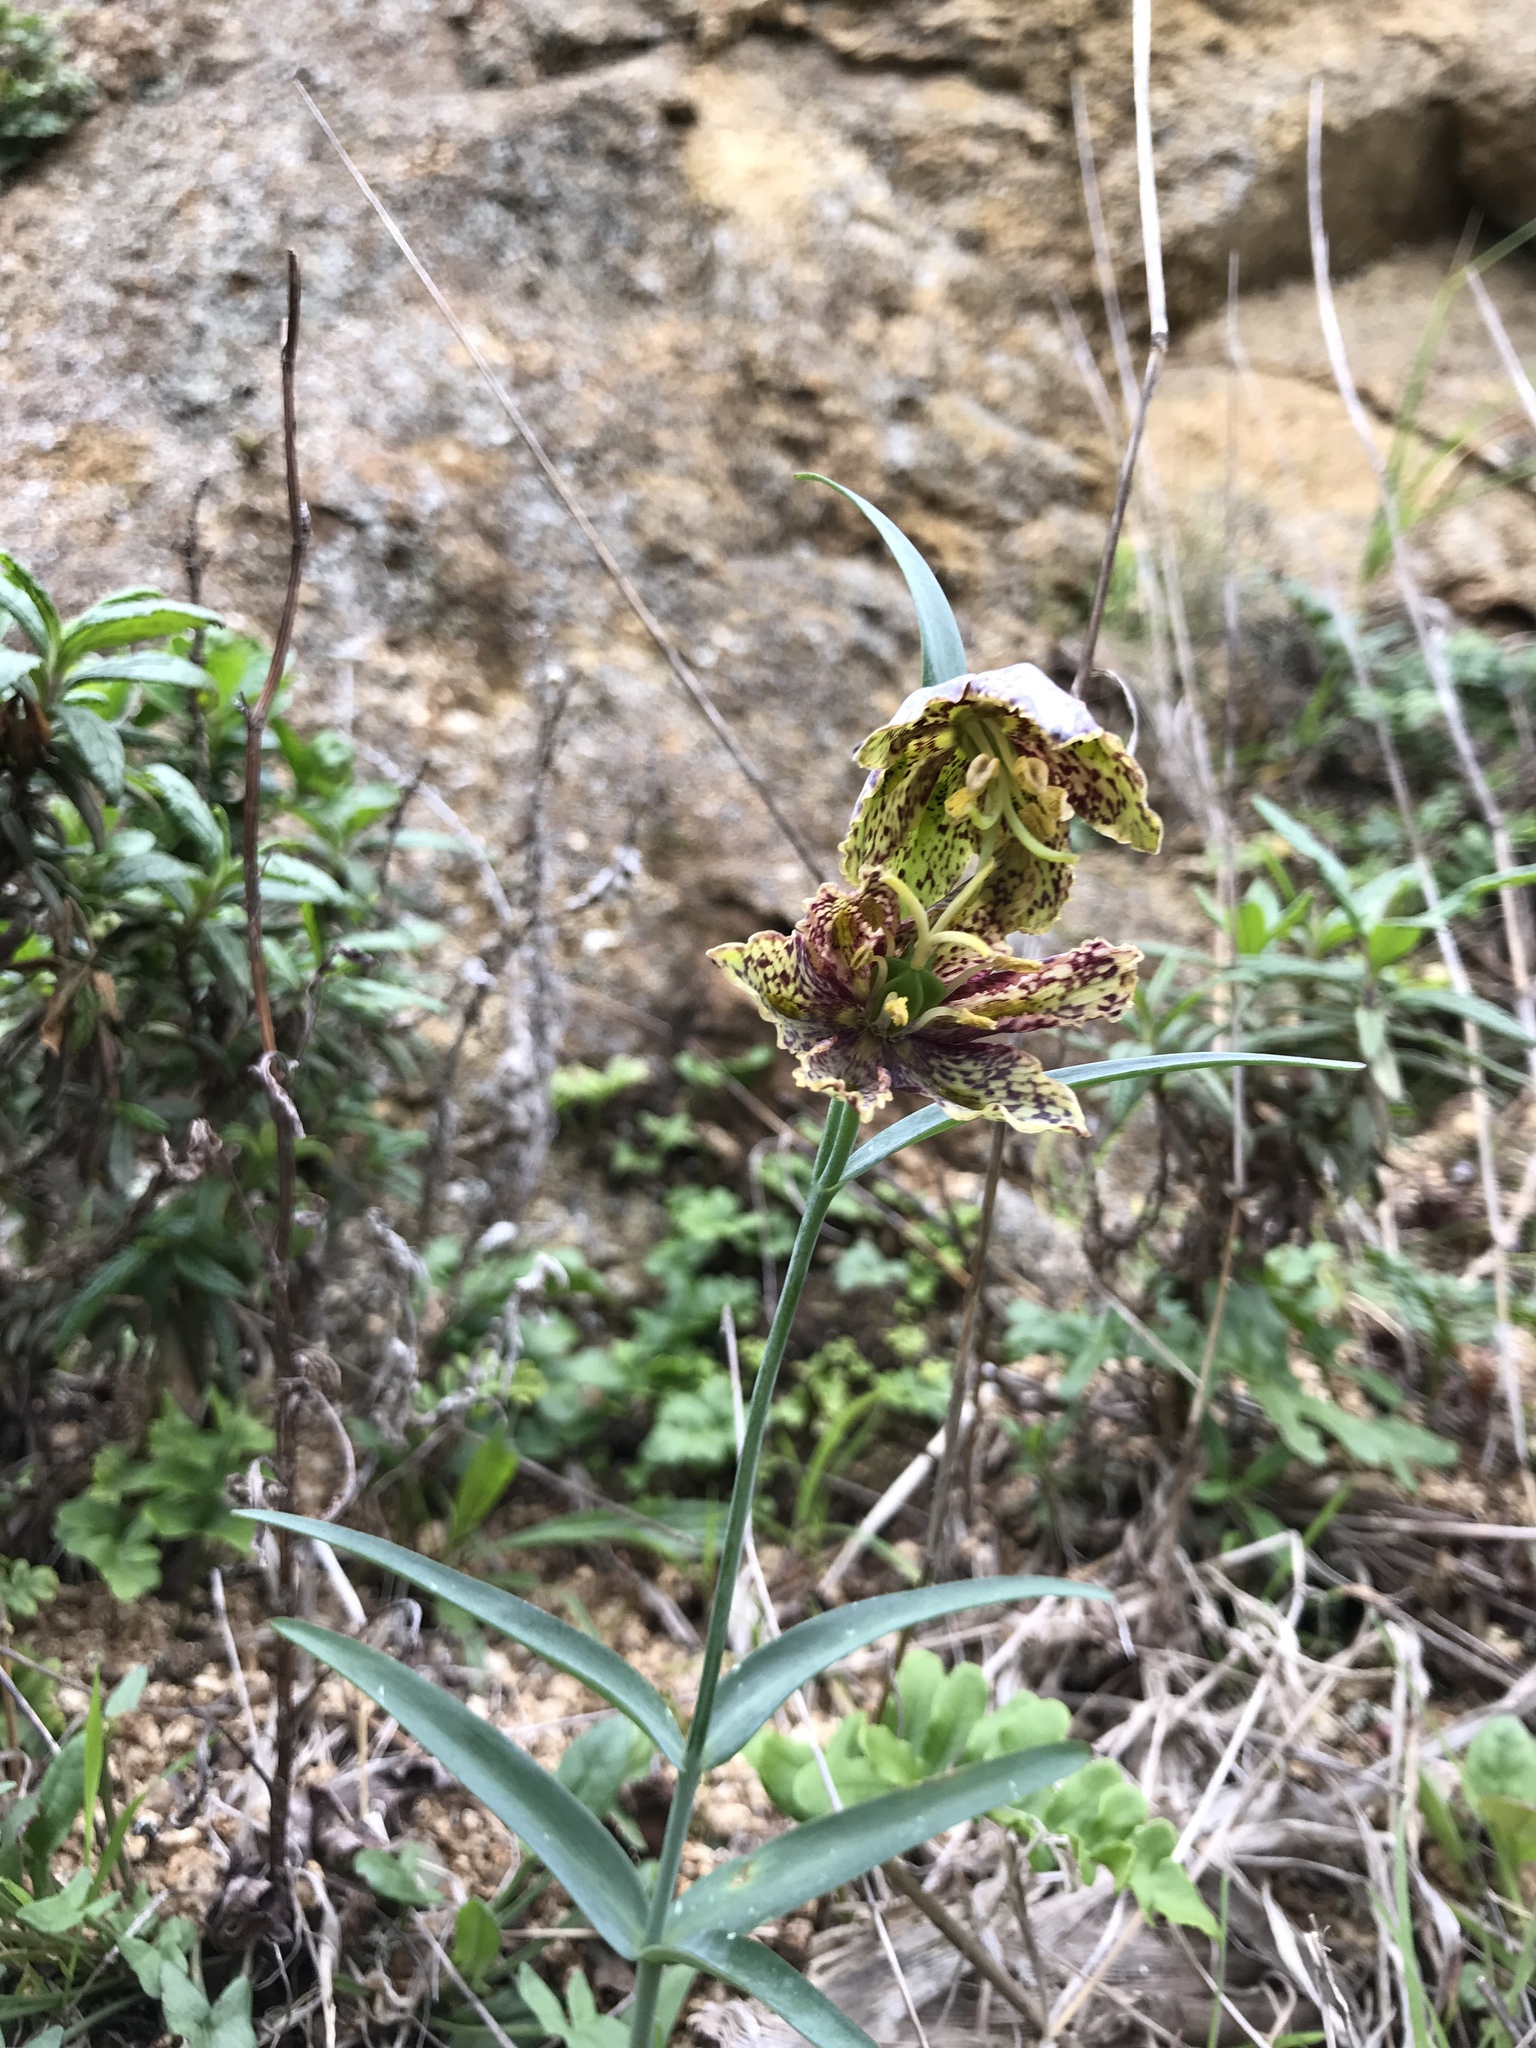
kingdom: Plantae
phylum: Tracheophyta
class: Liliopsida
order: Liliales
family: Liliaceae
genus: Fritillaria
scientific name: Fritillaria affinis
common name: Ojai fritillary
